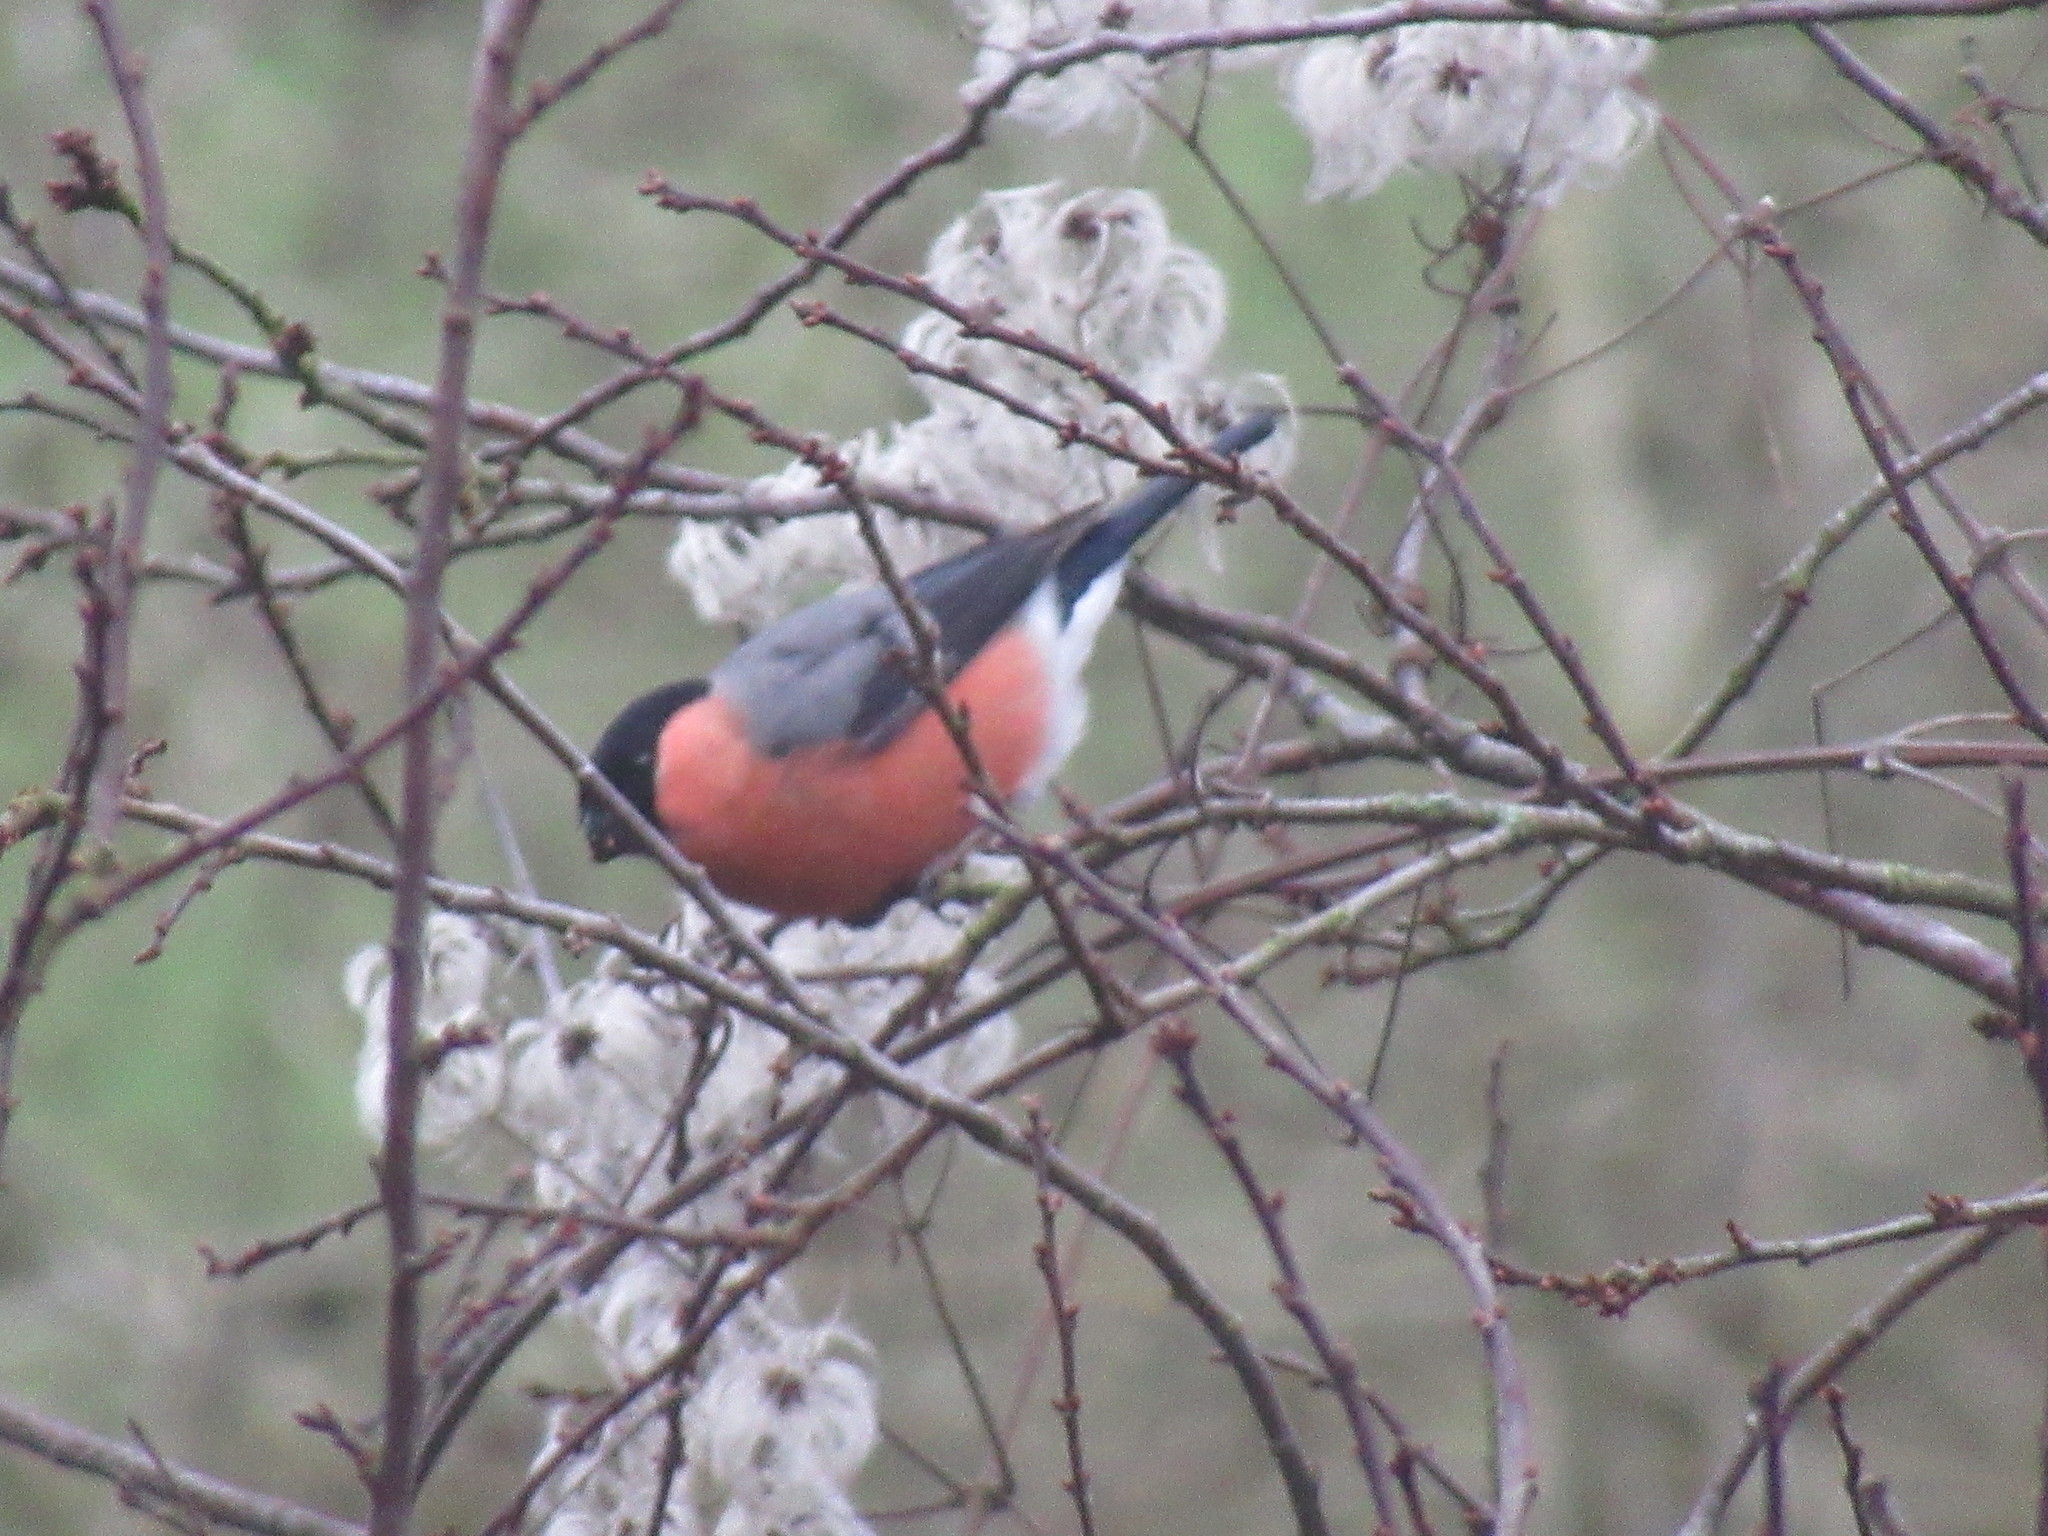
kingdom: Animalia
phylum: Chordata
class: Aves
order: Passeriformes
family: Fringillidae
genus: Pyrrhula
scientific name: Pyrrhula pyrrhula
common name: Eurasian bullfinch
